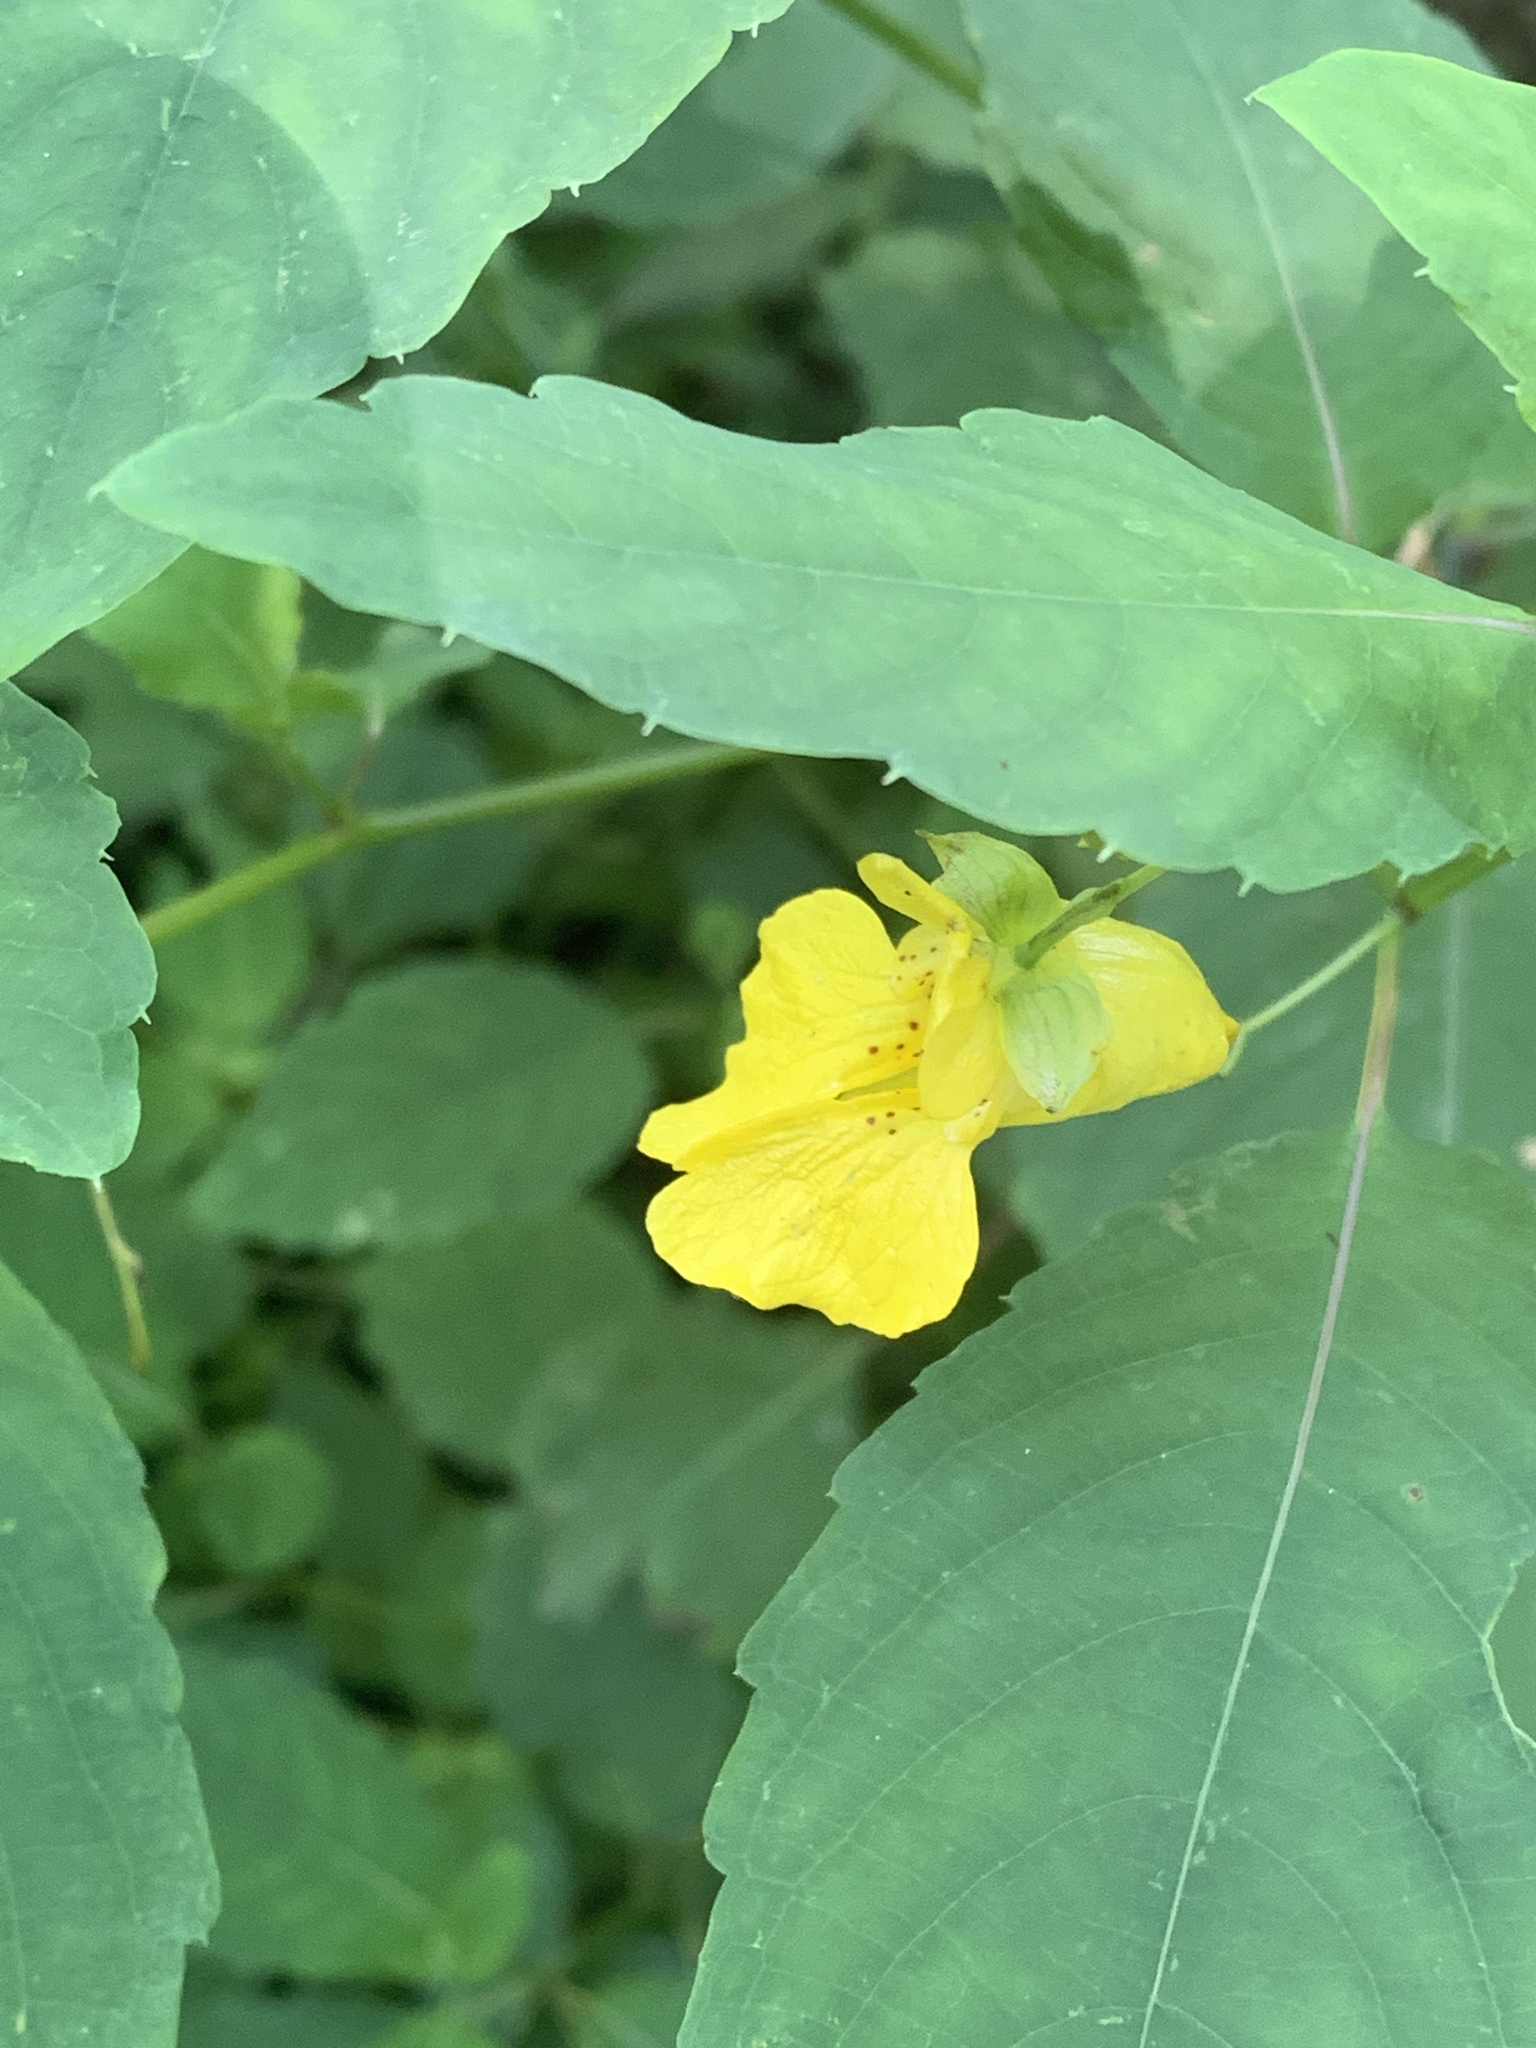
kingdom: Plantae
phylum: Tracheophyta
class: Magnoliopsida
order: Ericales
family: Balsaminaceae
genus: Impatiens
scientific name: Impatiens pallida
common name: Pale snapweed
